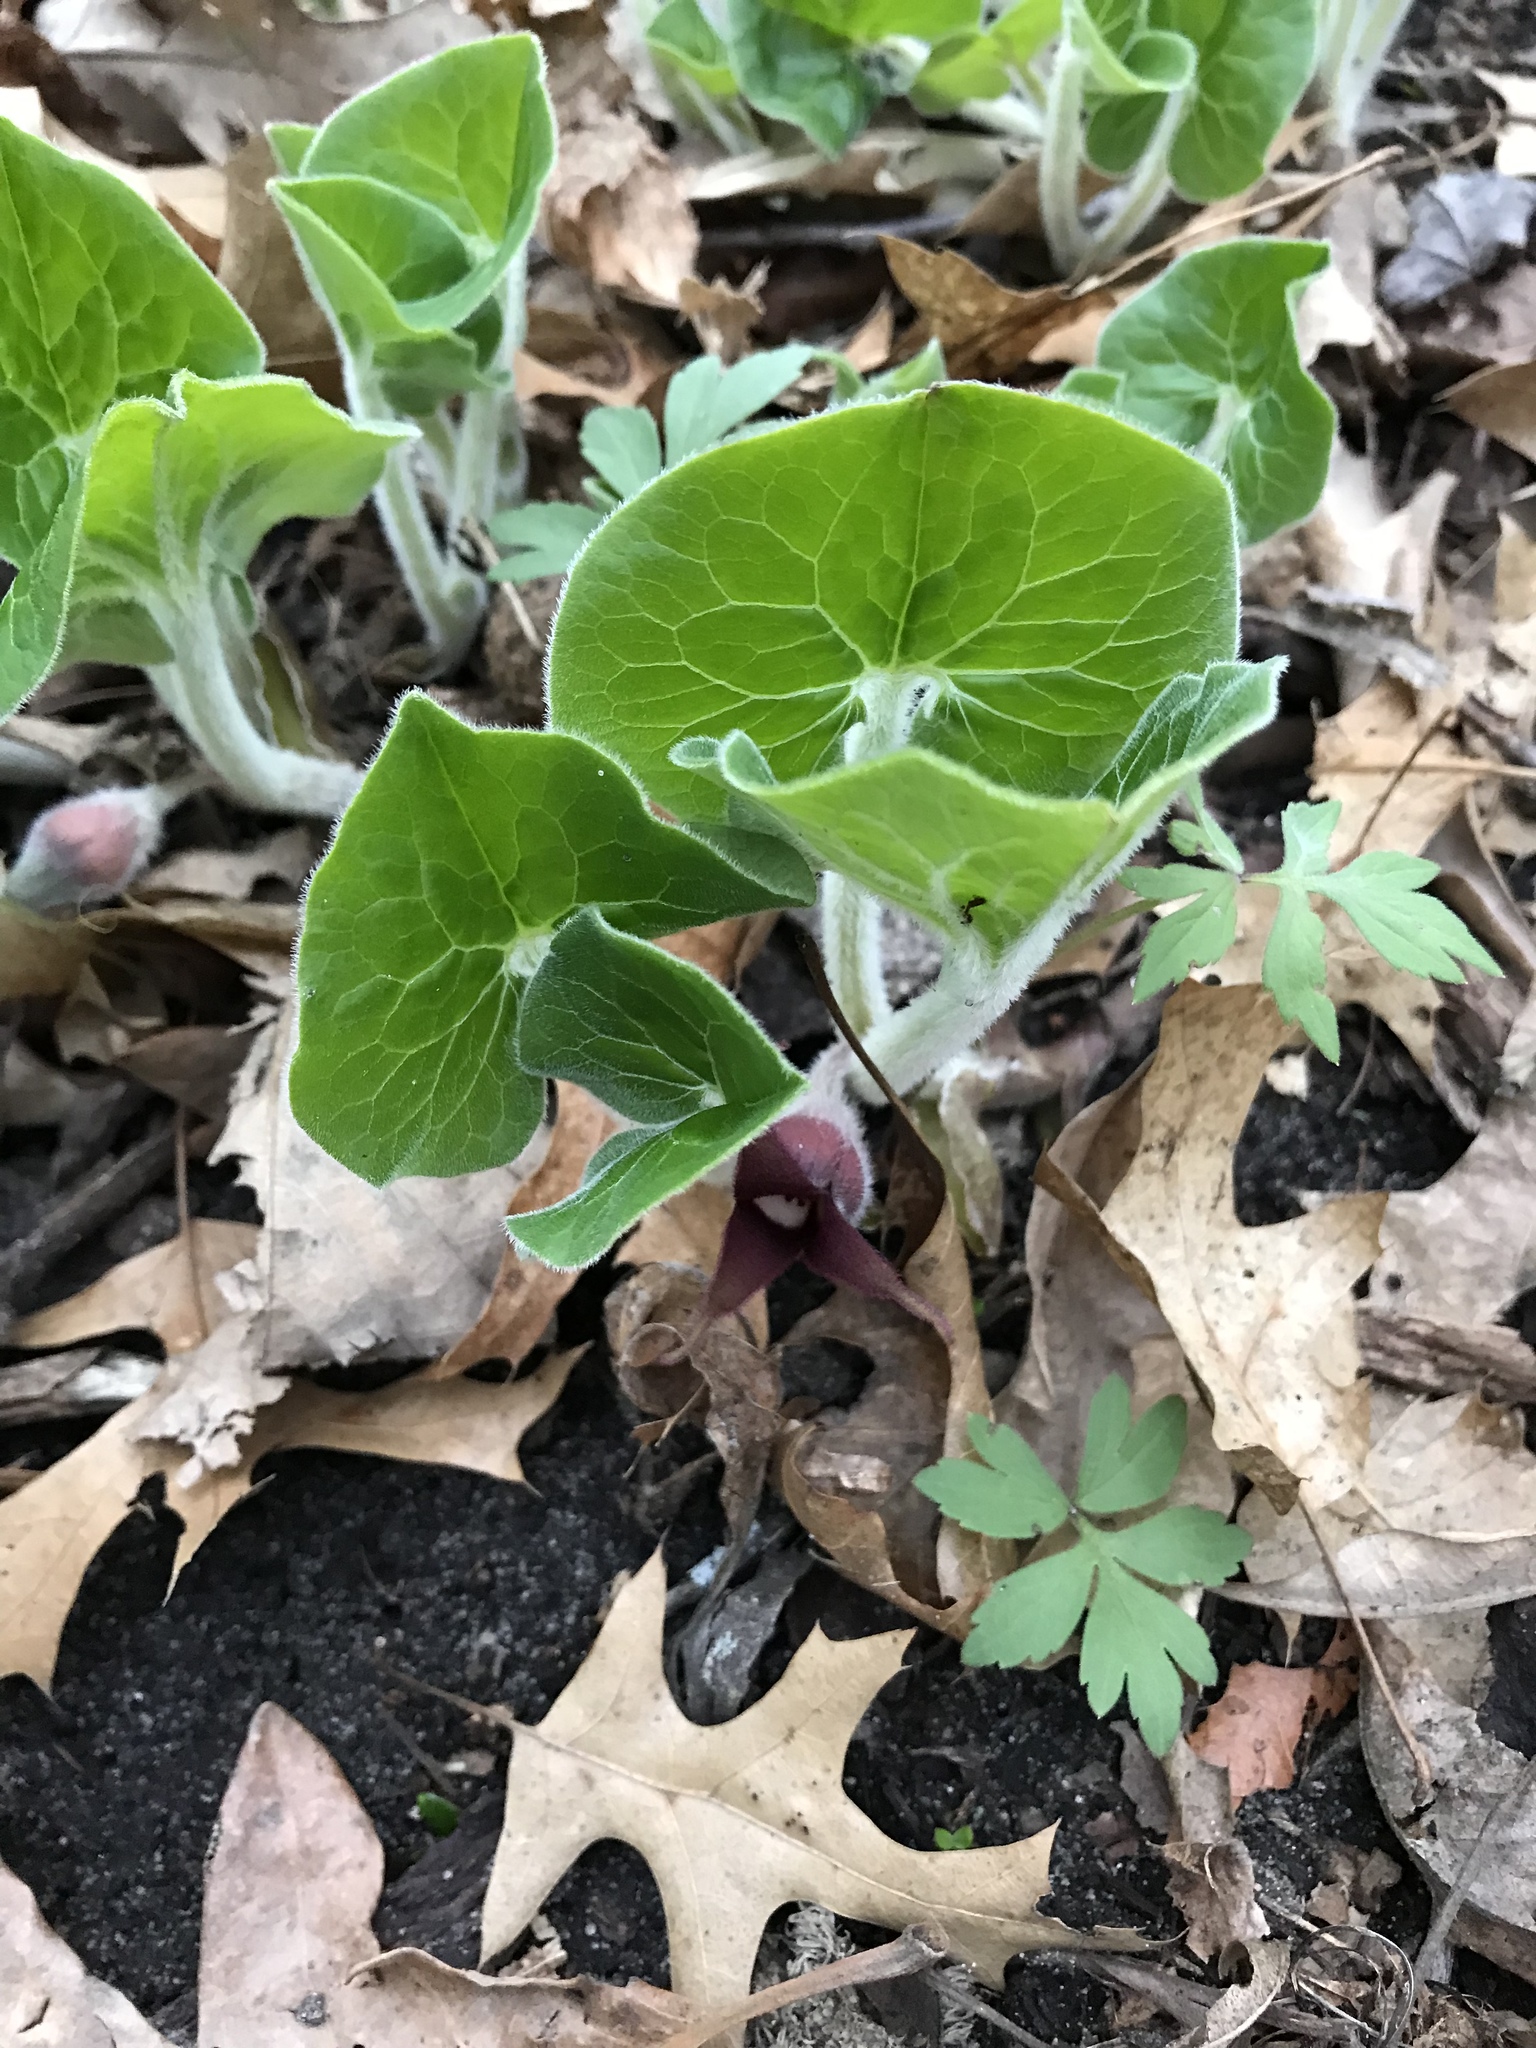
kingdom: Plantae
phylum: Tracheophyta
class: Magnoliopsida
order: Piperales
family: Aristolochiaceae
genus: Asarum
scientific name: Asarum canadense
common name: Wild ginger
